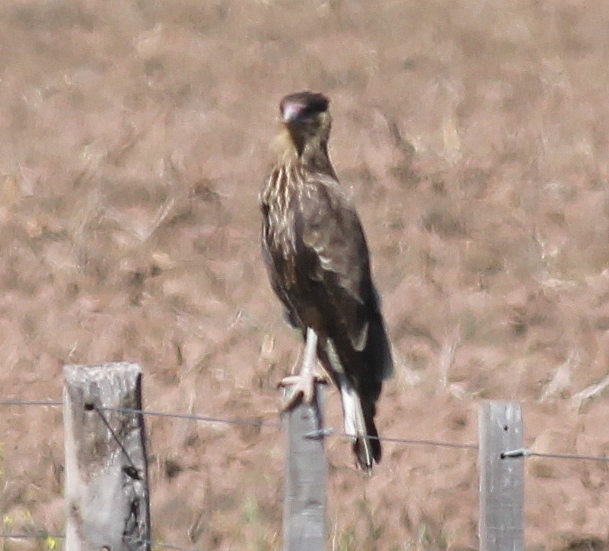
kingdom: Animalia
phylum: Chordata
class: Aves
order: Falconiformes
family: Falconidae
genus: Caracara
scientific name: Caracara plancus
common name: Southern caracara
